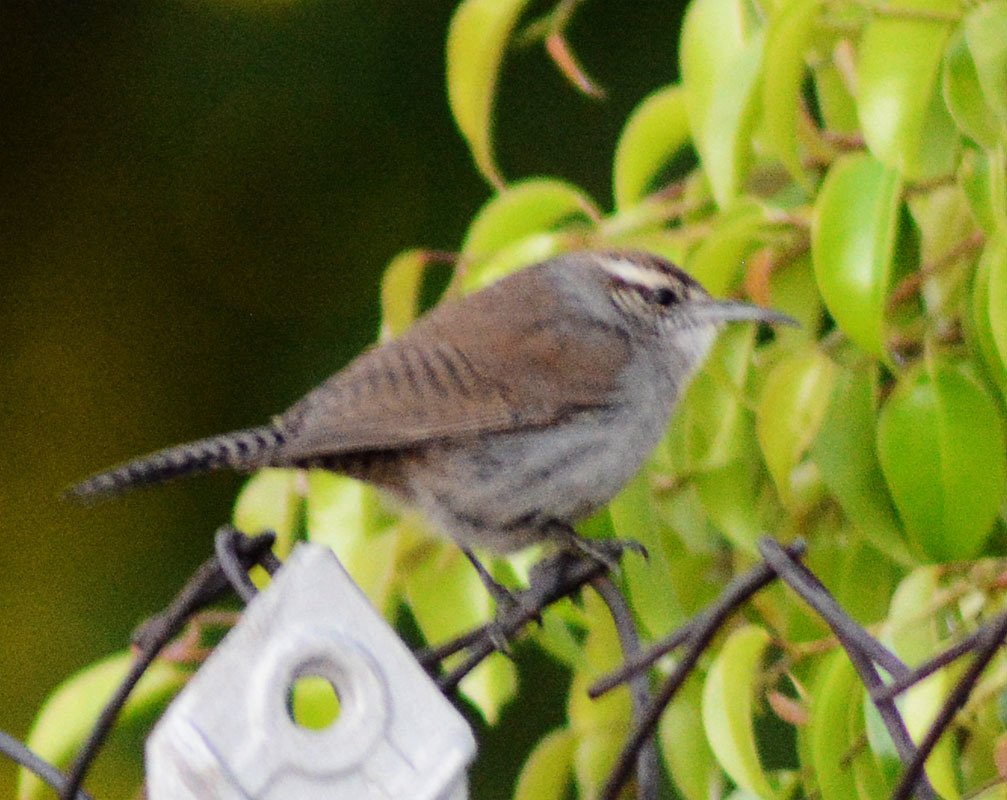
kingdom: Animalia
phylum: Chordata
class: Aves
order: Passeriformes
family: Troglodytidae
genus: Thryomanes
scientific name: Thryomanes bewickii
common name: Bewick's wren
